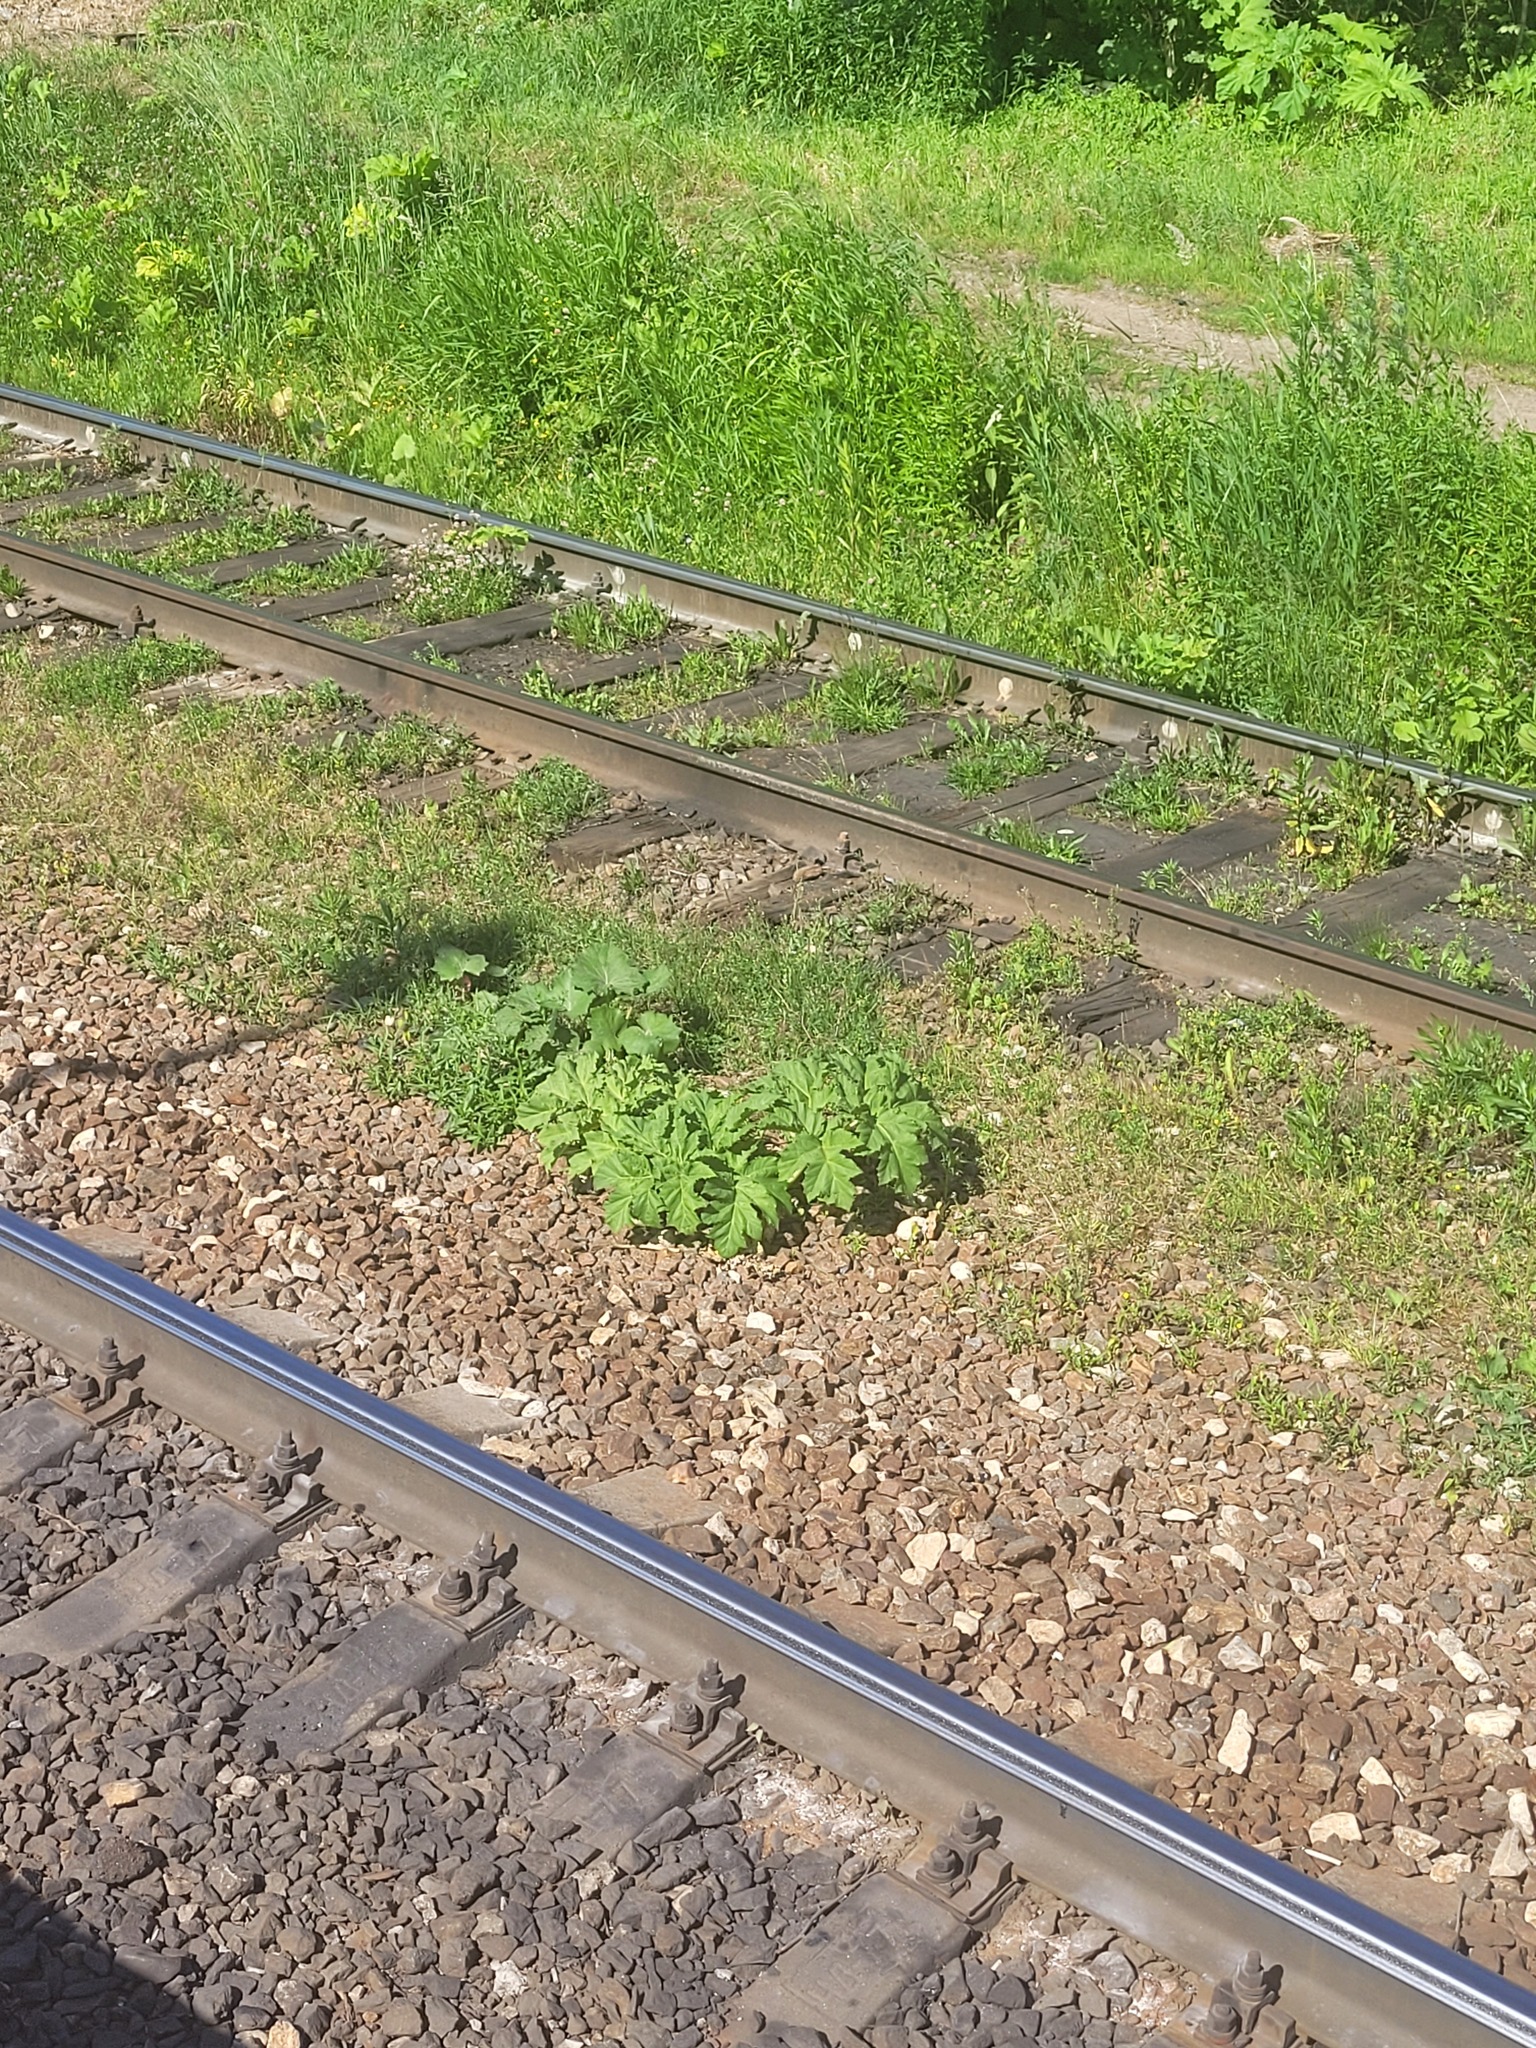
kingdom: Plantae
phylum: Tracheophyta
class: Magnoliopsida
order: Apiales
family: Apiaceae
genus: Heracleum
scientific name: Heracleum sosnowskyi
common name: Sosnowsky's hogweed
